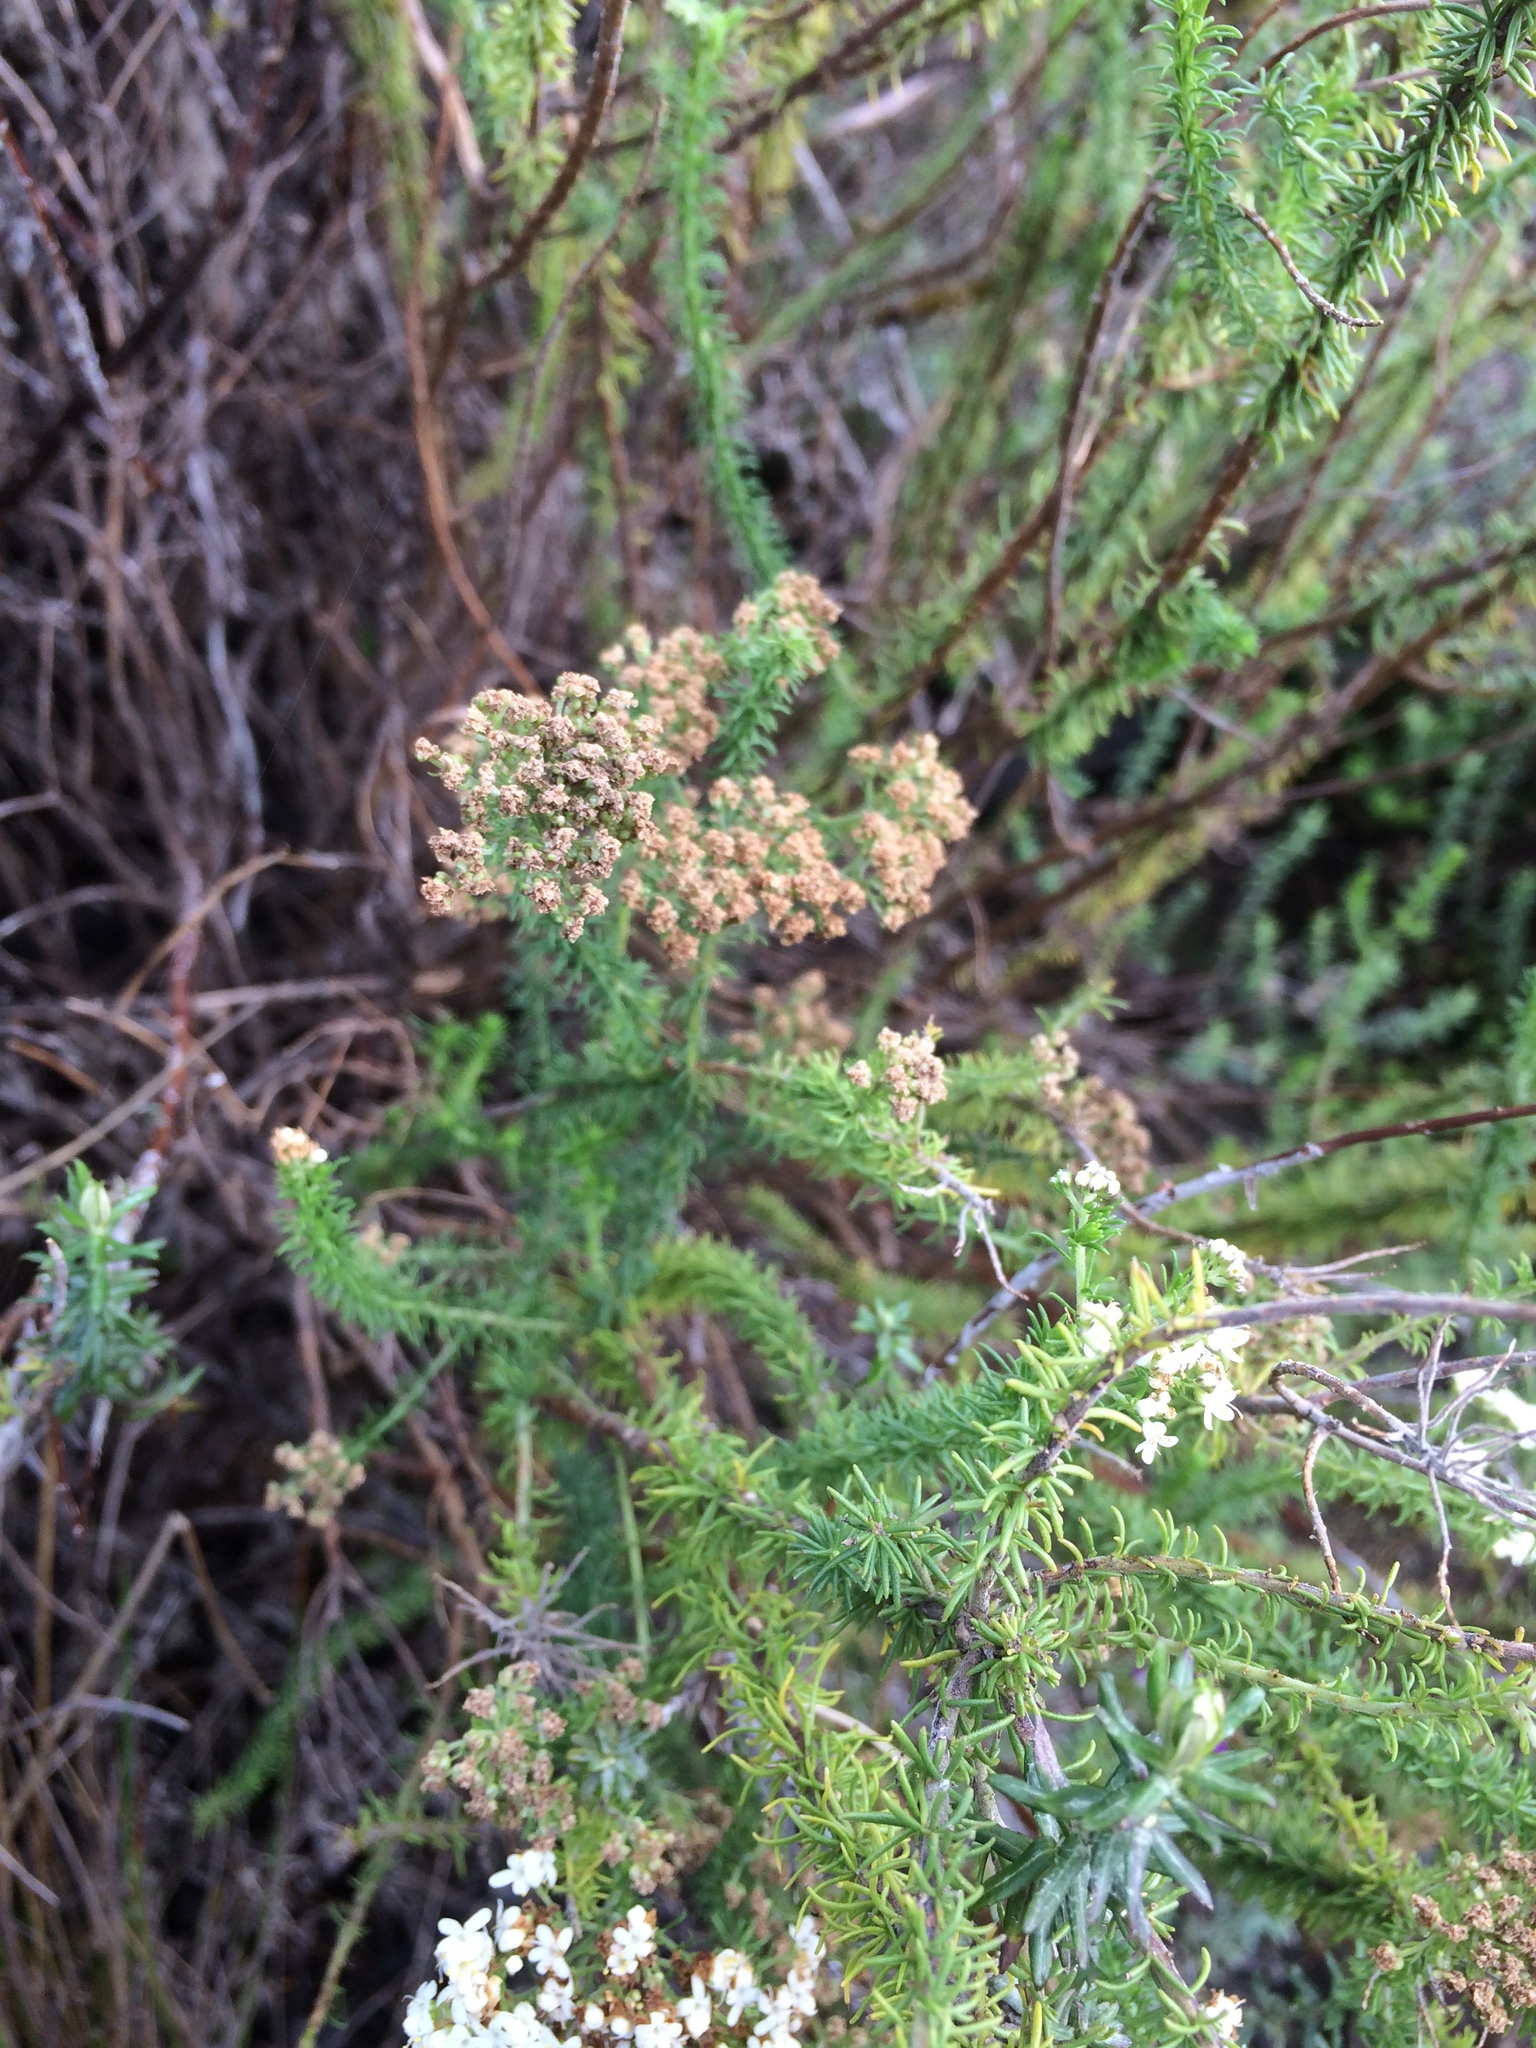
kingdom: Plantae
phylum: Tracheophyta
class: Magnoliopsida
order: Lamiales
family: Scrophulariaceae
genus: Selago
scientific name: Selago corymbosa
